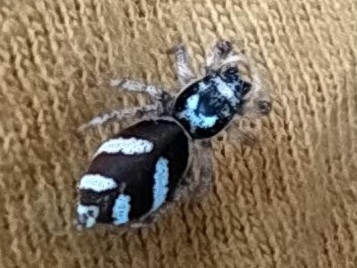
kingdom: Animalia
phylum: Arthropoda
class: Arachnida
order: Araneae
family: Salticidae
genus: Salticus
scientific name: Salticus scenicus
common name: Zebra jumper
